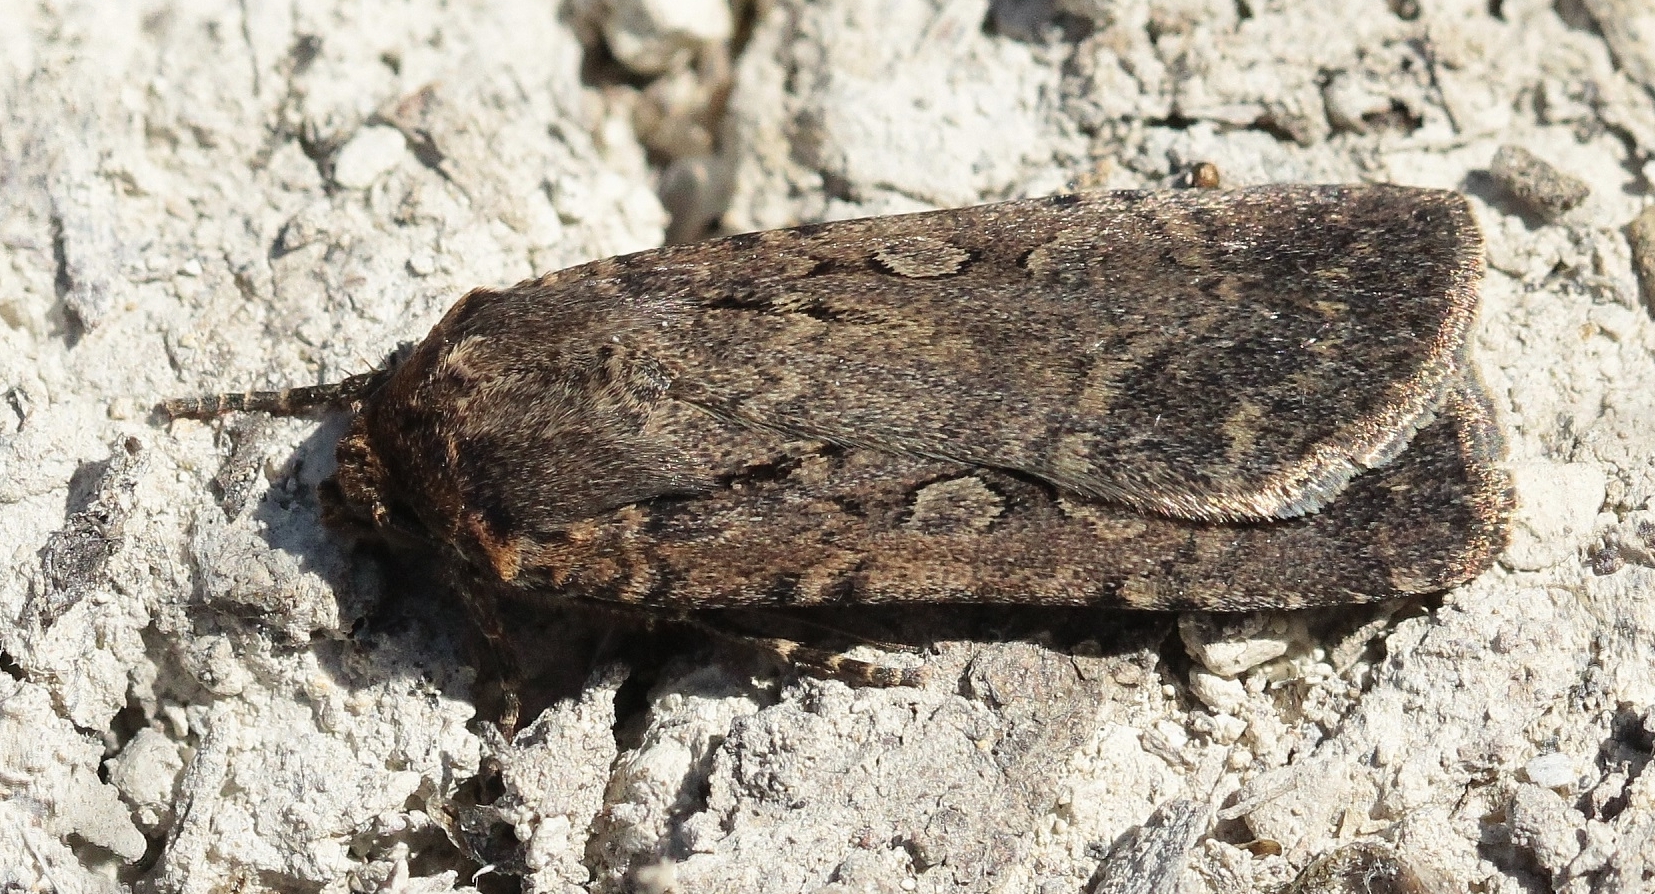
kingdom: Animalia
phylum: Arthropoda
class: Insecta
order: Lepidoptera
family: Noctuidae
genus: Spaelotis
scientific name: Spaelotis ravida
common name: Stout dart
